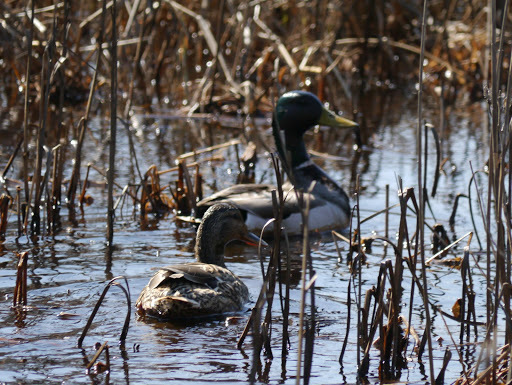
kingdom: Animalia
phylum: Chordata
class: Aves
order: Anseriformes
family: Anatidae
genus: Anas
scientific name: Anas platyrhynchos
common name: Mallard
